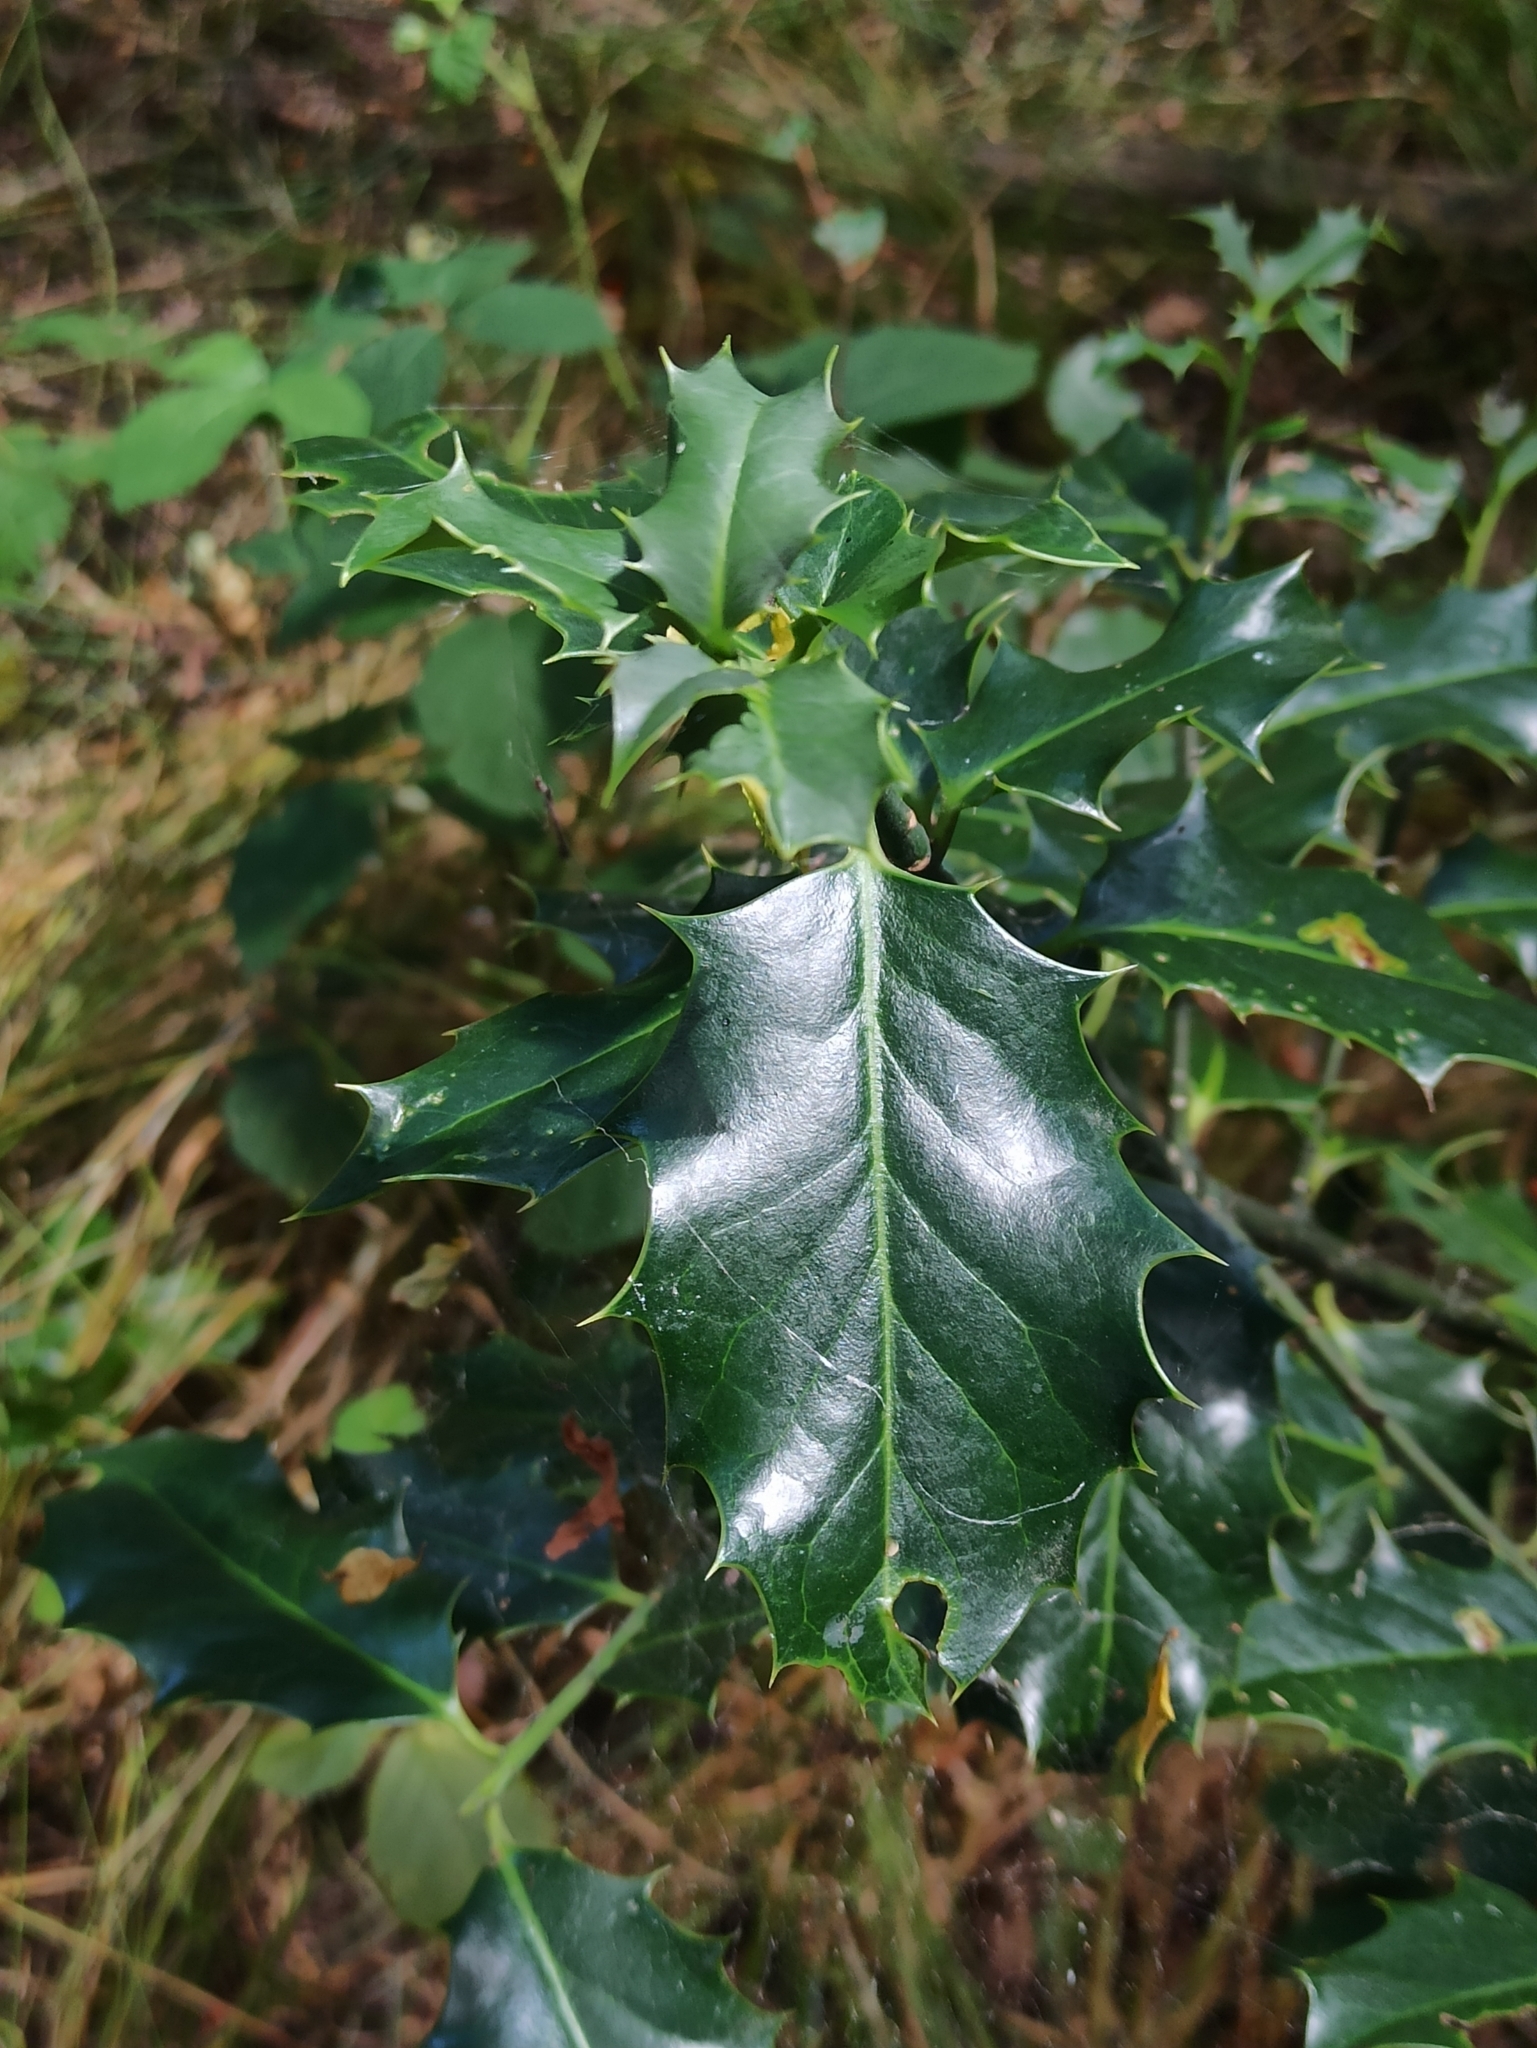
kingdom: Plantae
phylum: Tracheophyta
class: Magnoliopsida
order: Aquifoliales
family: Aquifoliaceae
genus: Ilex
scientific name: Ilex aquifolium
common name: English holly
